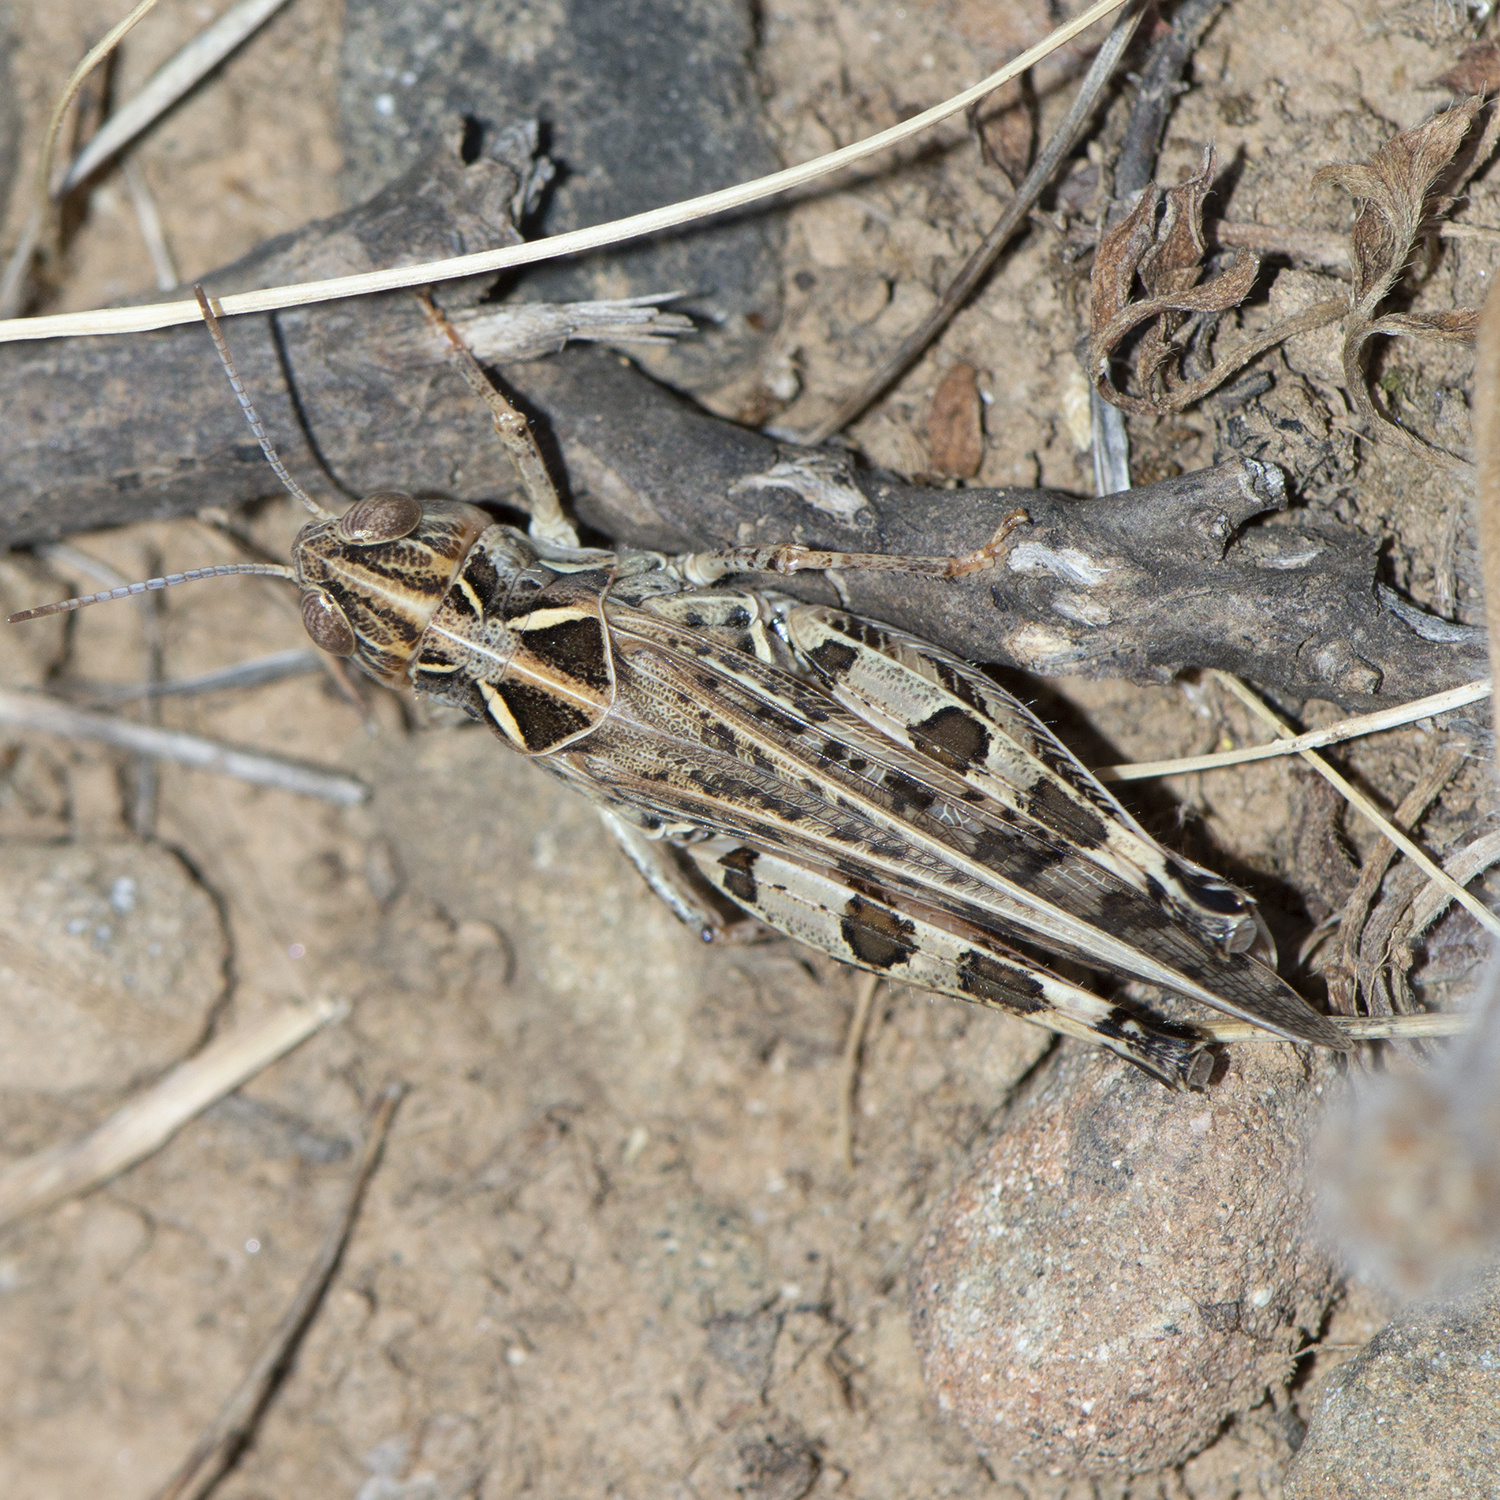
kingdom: Animalia
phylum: Arthropoda
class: Insecta
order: Orthoptera
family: Acrididae
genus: Dociostaurus
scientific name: Dociostaurus maroccanus
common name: Moroccan locust
